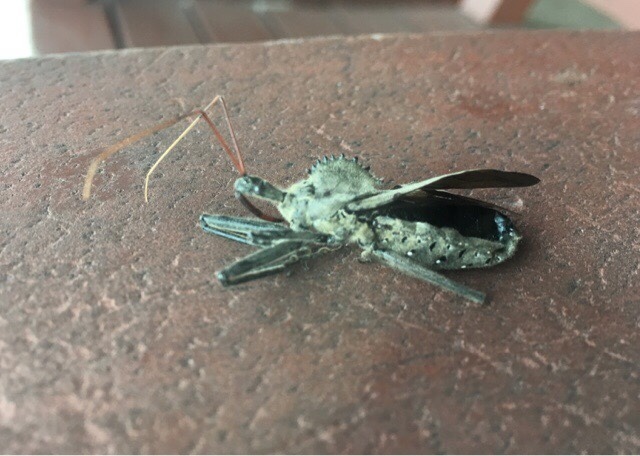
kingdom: Animalia
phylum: Arthropoda
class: Insecta
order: Hemiptera
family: Reduviidae
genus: Arilus
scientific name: Arilus cristatus
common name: North american wheel bug
